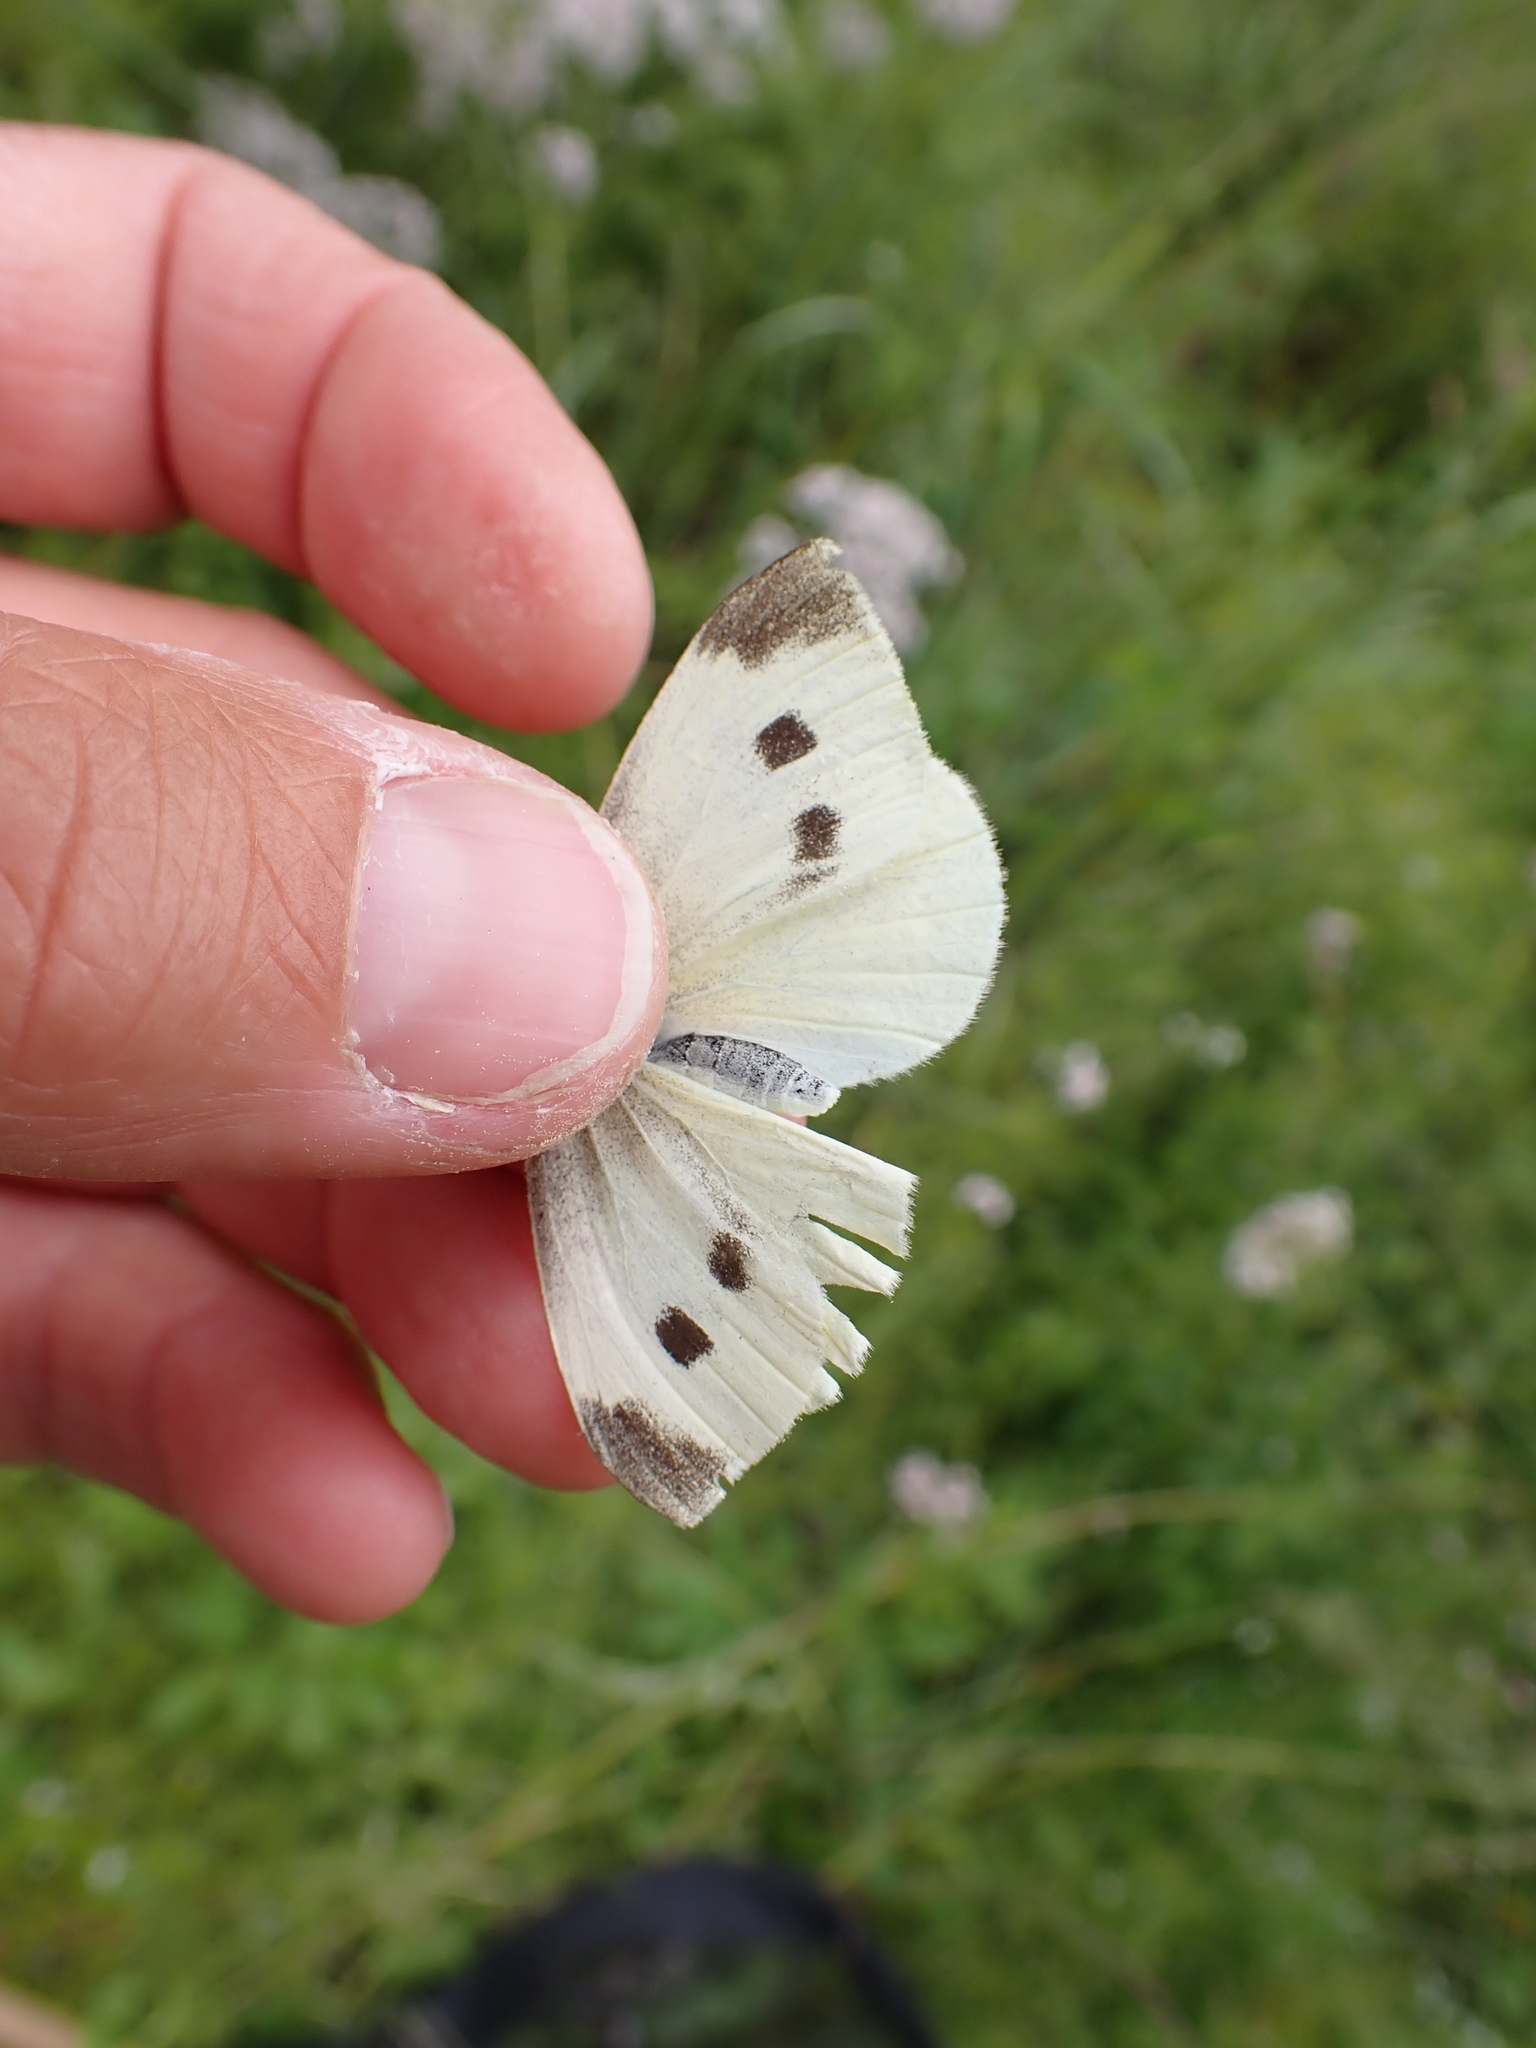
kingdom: Animalia
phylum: Arthropoda
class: Insecta
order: Lepidoptera
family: Pieridae
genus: Pieris
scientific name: Pieris rapae
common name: Small white
